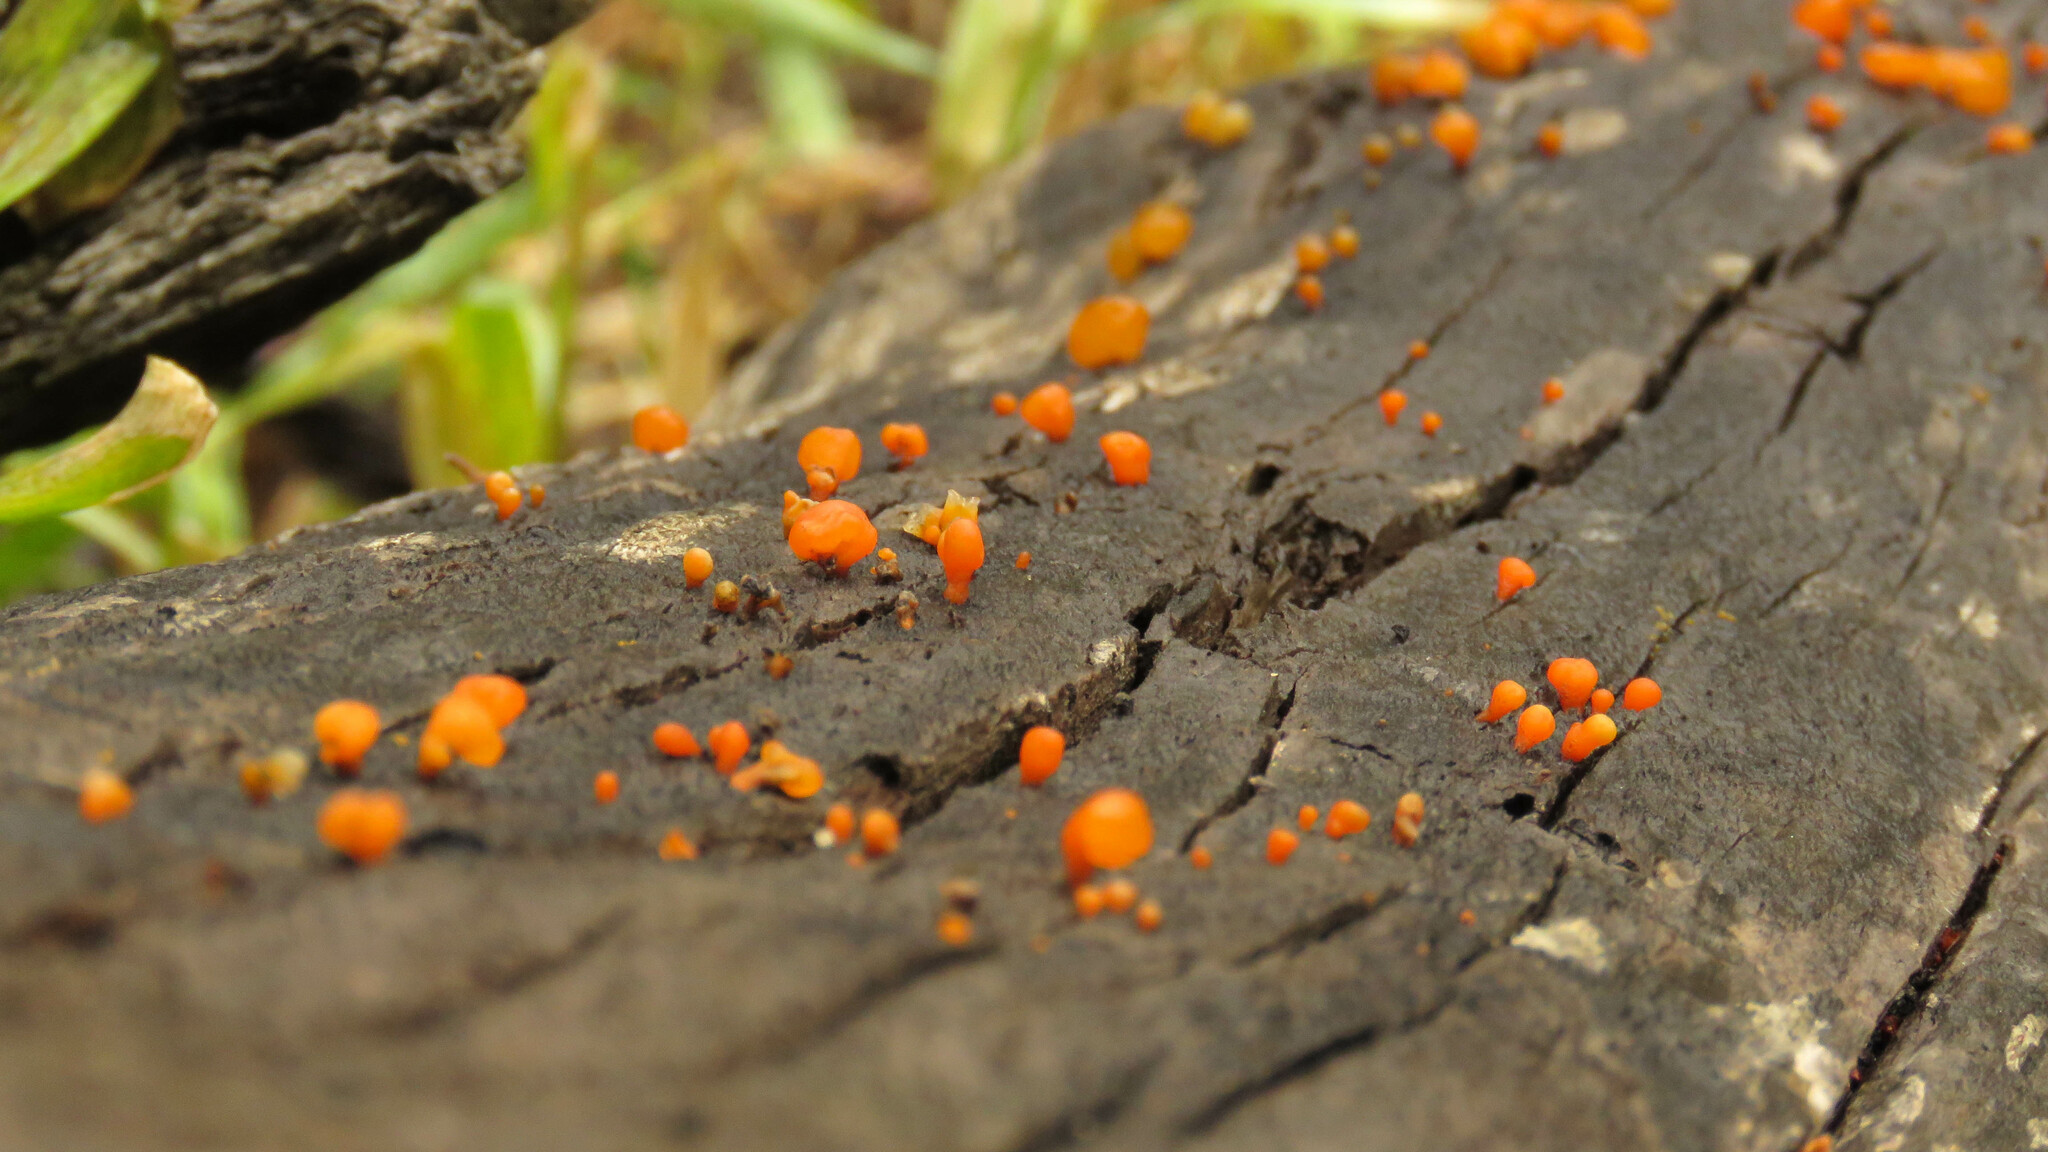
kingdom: Fungi
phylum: Basidiomycota
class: Dacrymycetes
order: Dacrymycetales
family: Dacrymycetaceae
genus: Guepiniopsis
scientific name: Guepiniopsis alpina
